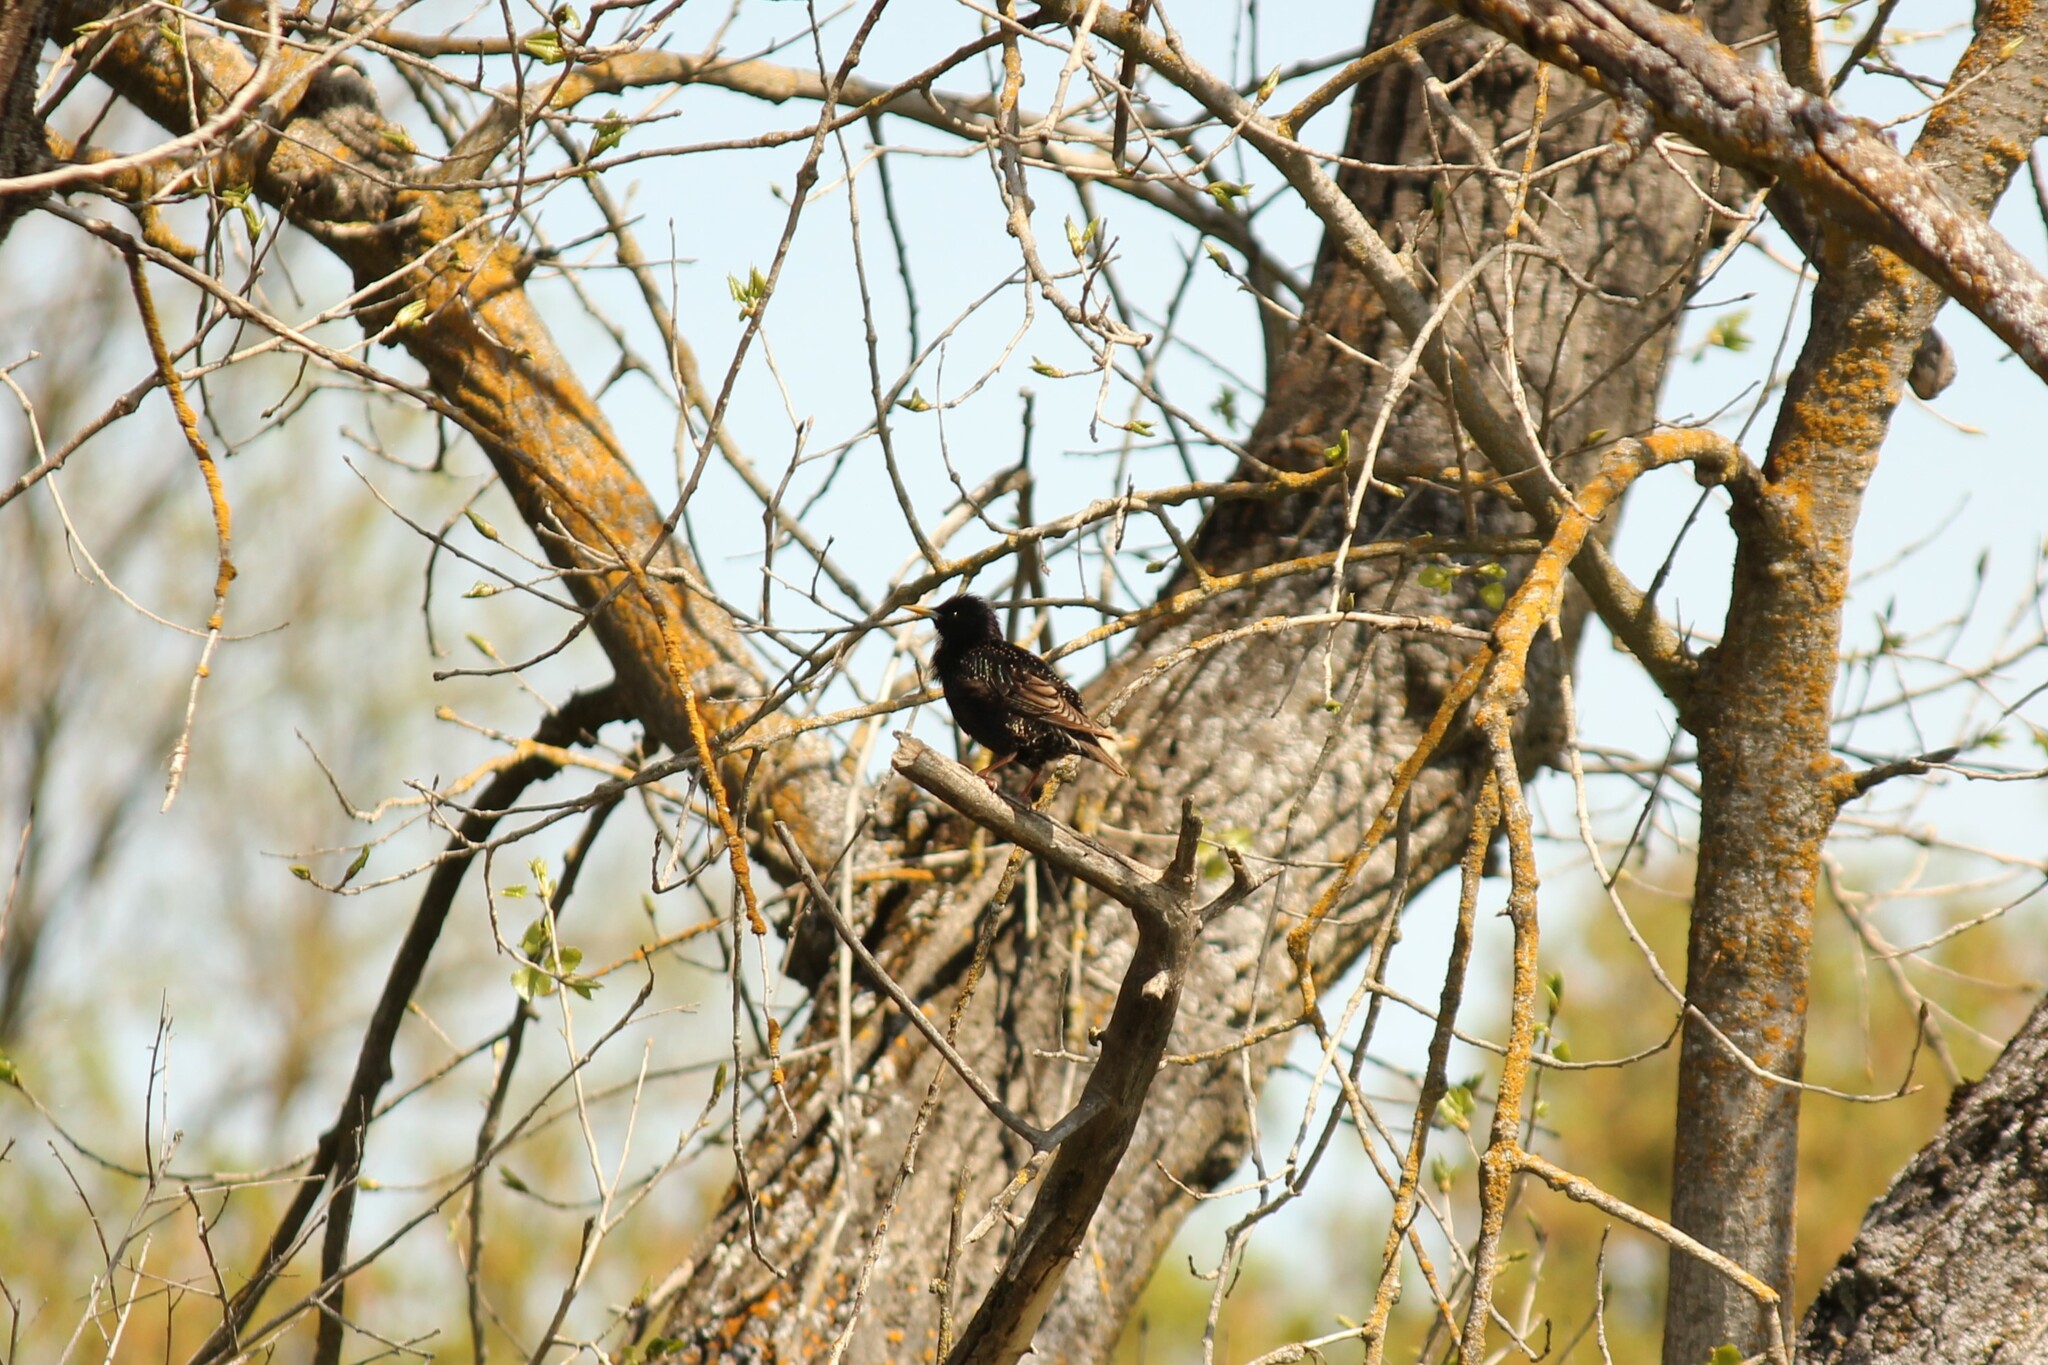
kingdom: Animalia
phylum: Chordata
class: Aves
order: Passeriformes
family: Sturnidae
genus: Sturnus
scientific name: Sturnus vulgaris
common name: Common starling
